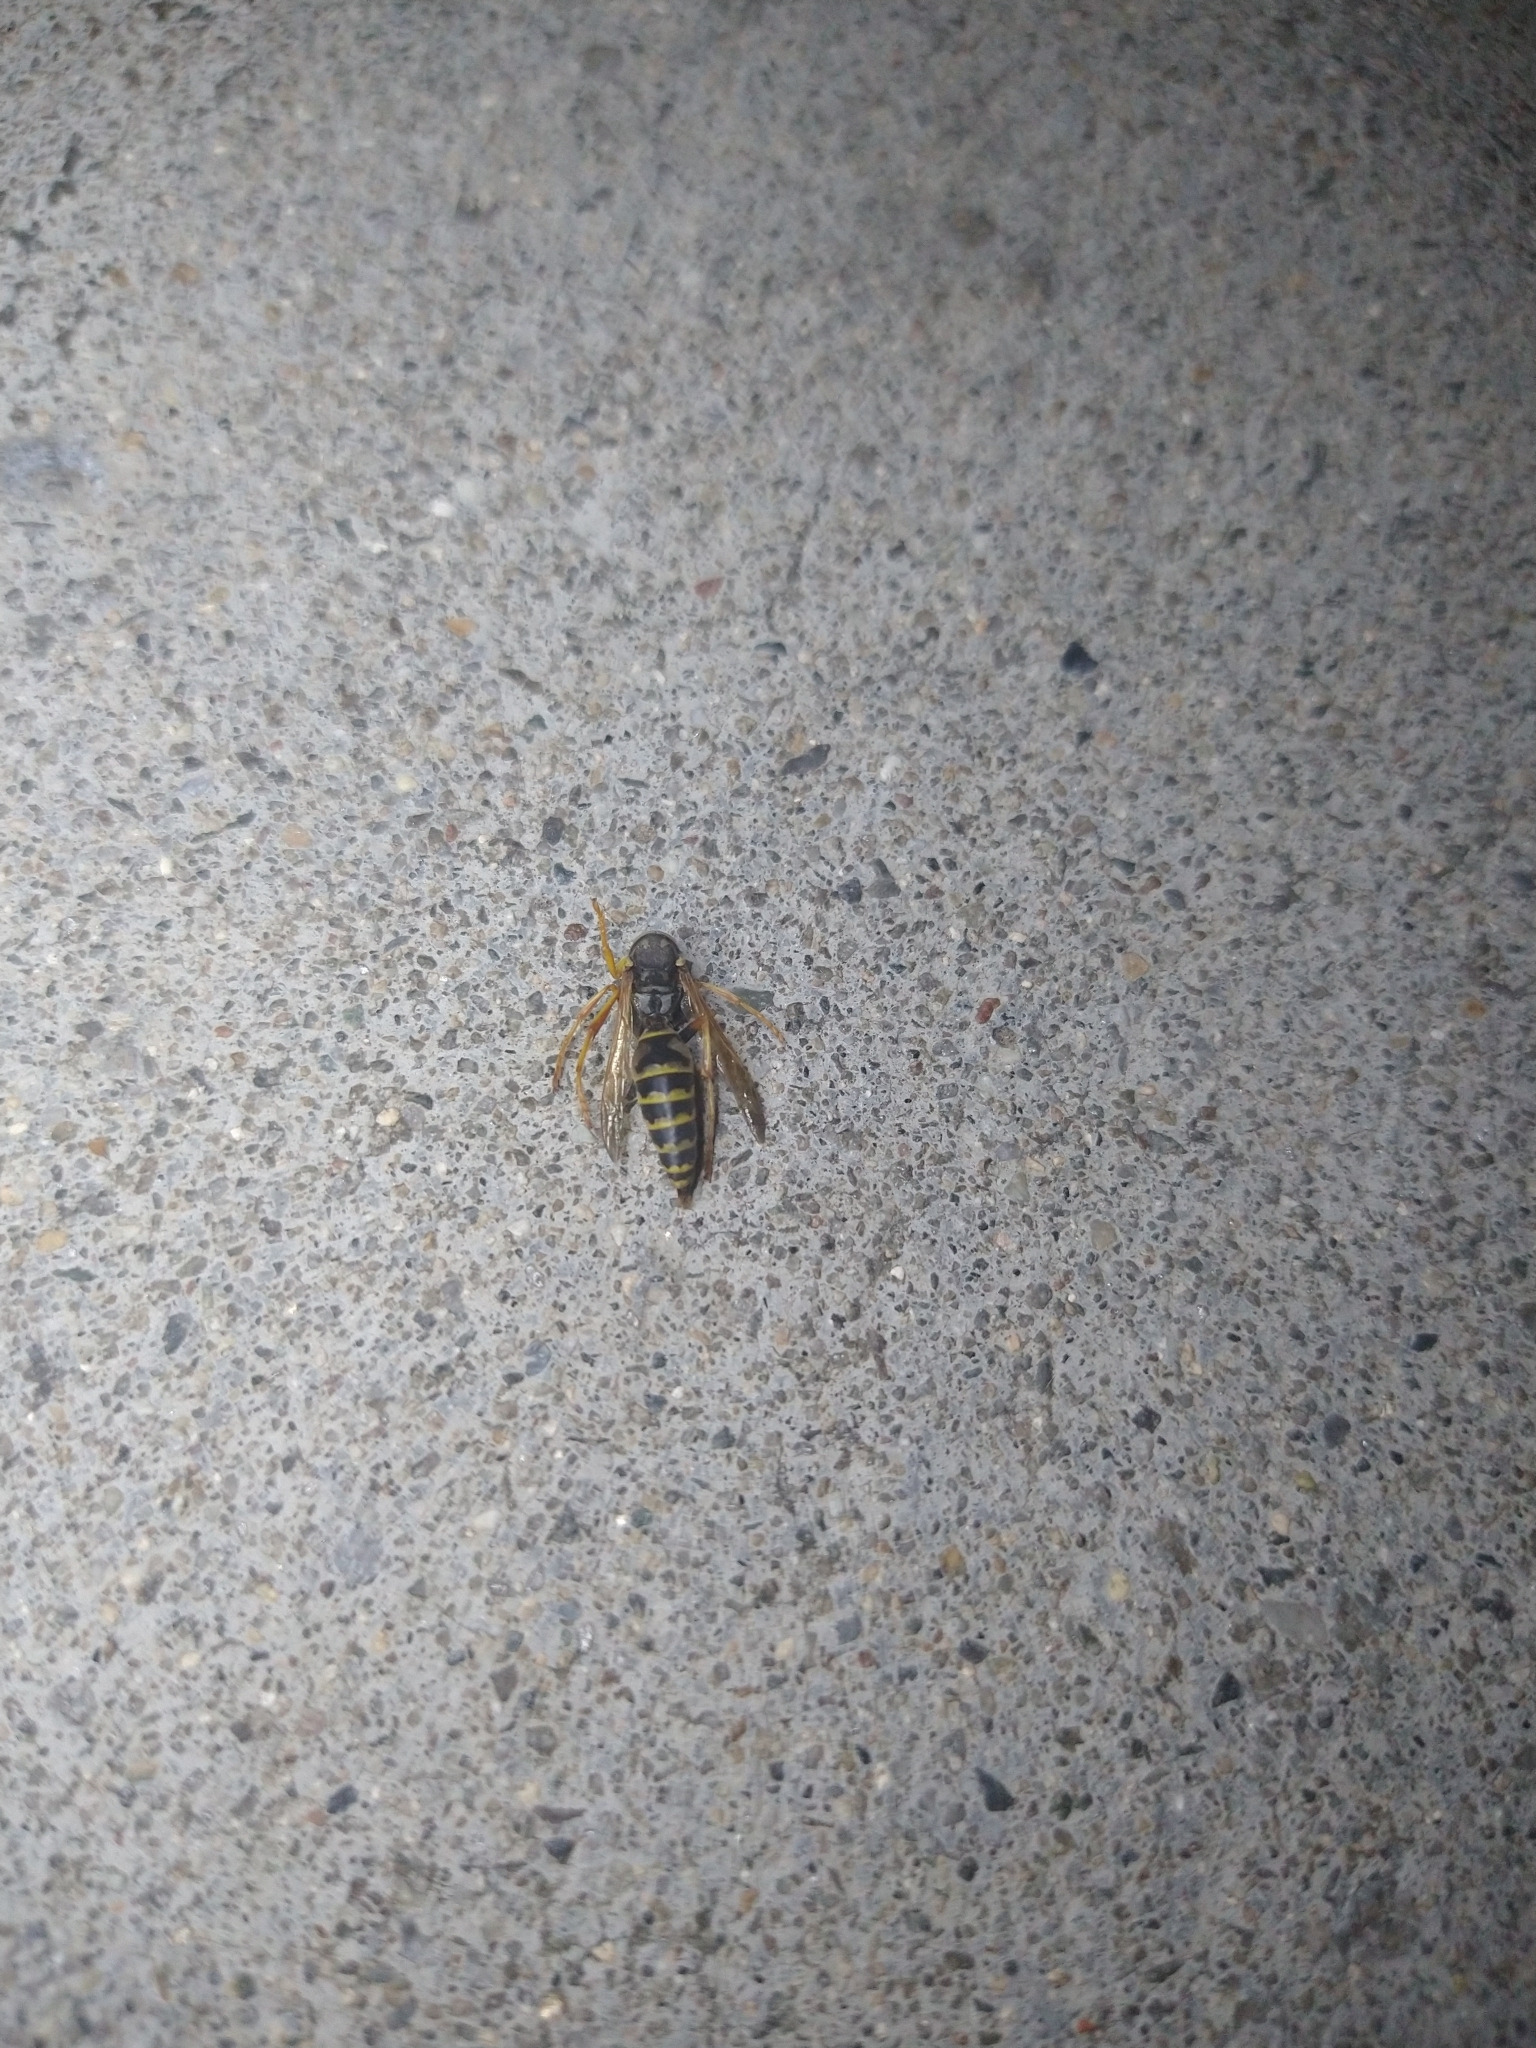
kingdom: Animalia
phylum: Arthropoda
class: Insecta
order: Hymenoptera
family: Eumenidae
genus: Polistes
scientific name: Polistes dominula
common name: Paper wasp
